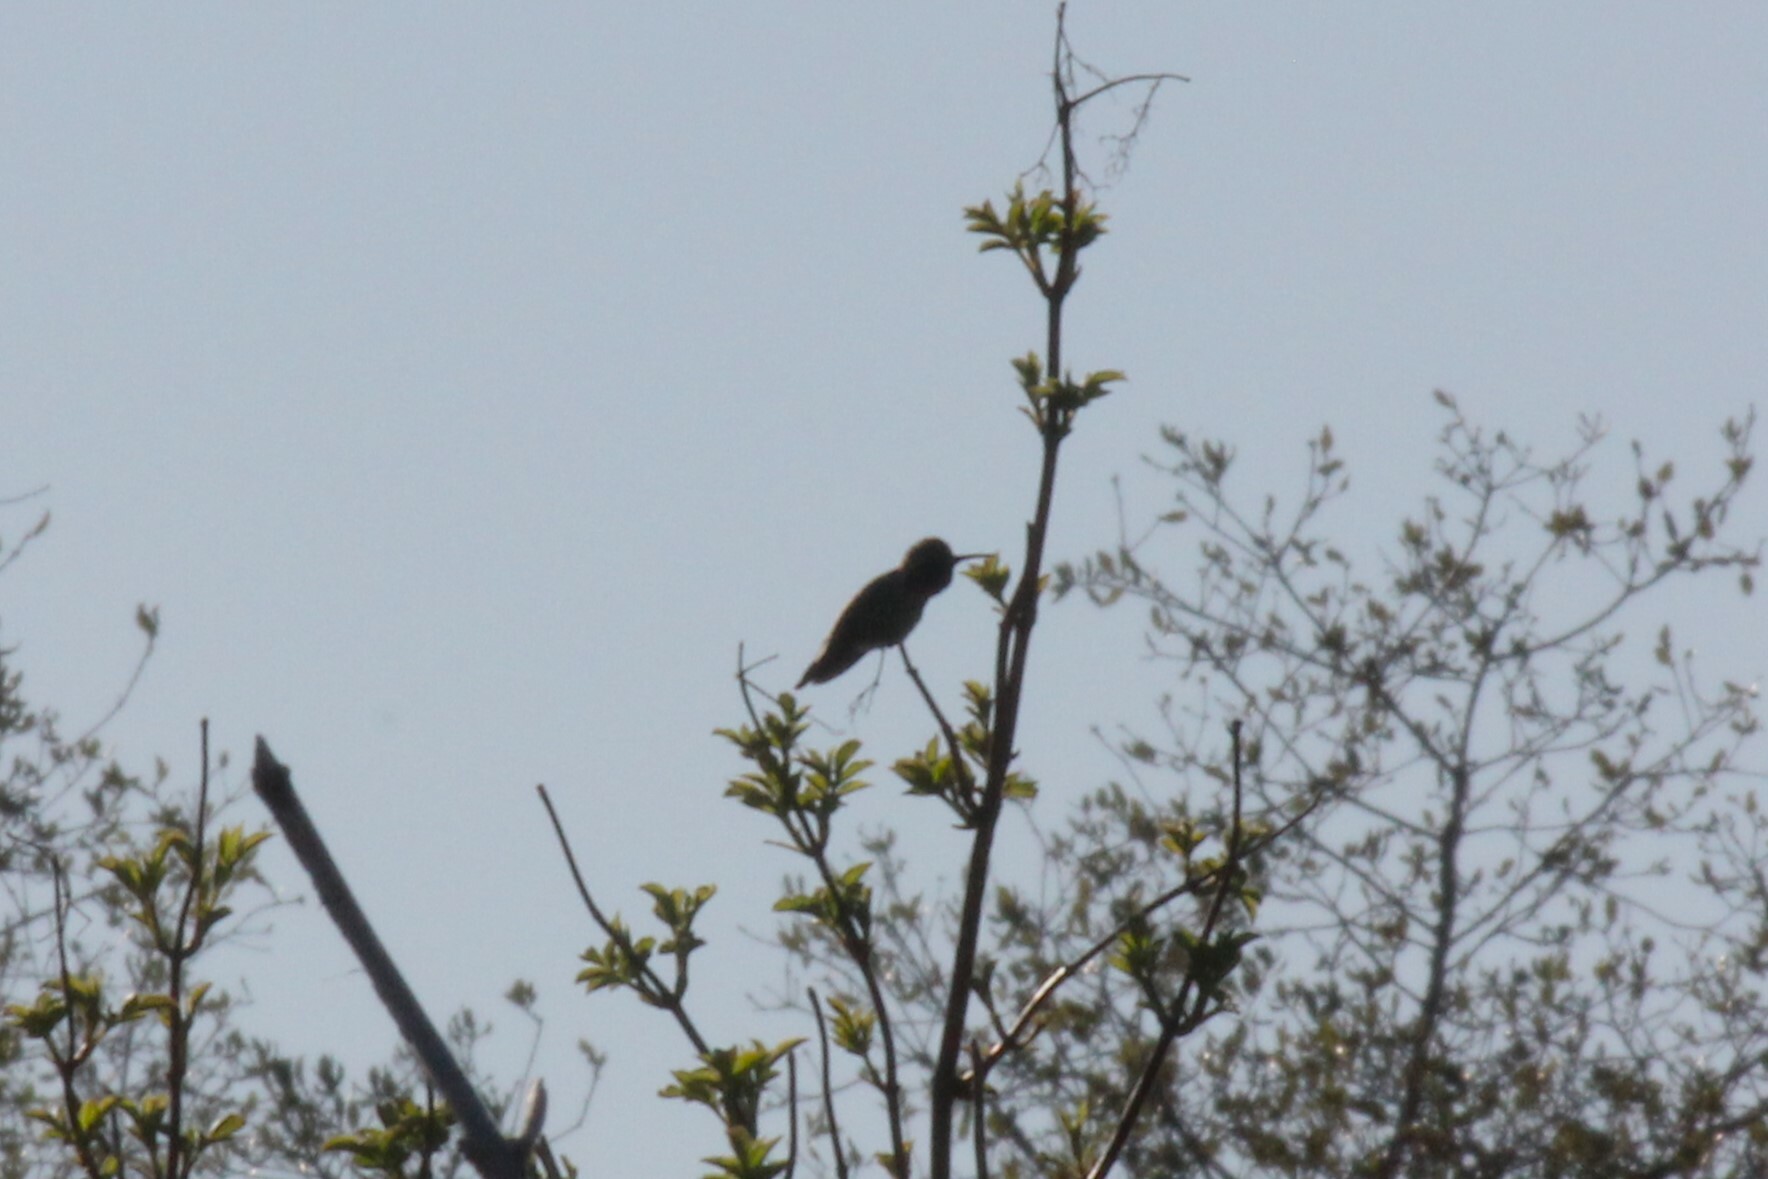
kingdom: Animalia
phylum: Chordata
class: Aves
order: Apodiformes
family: Trochilidae
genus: Calypte
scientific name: Calypte anna
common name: Anna's hummingbird
